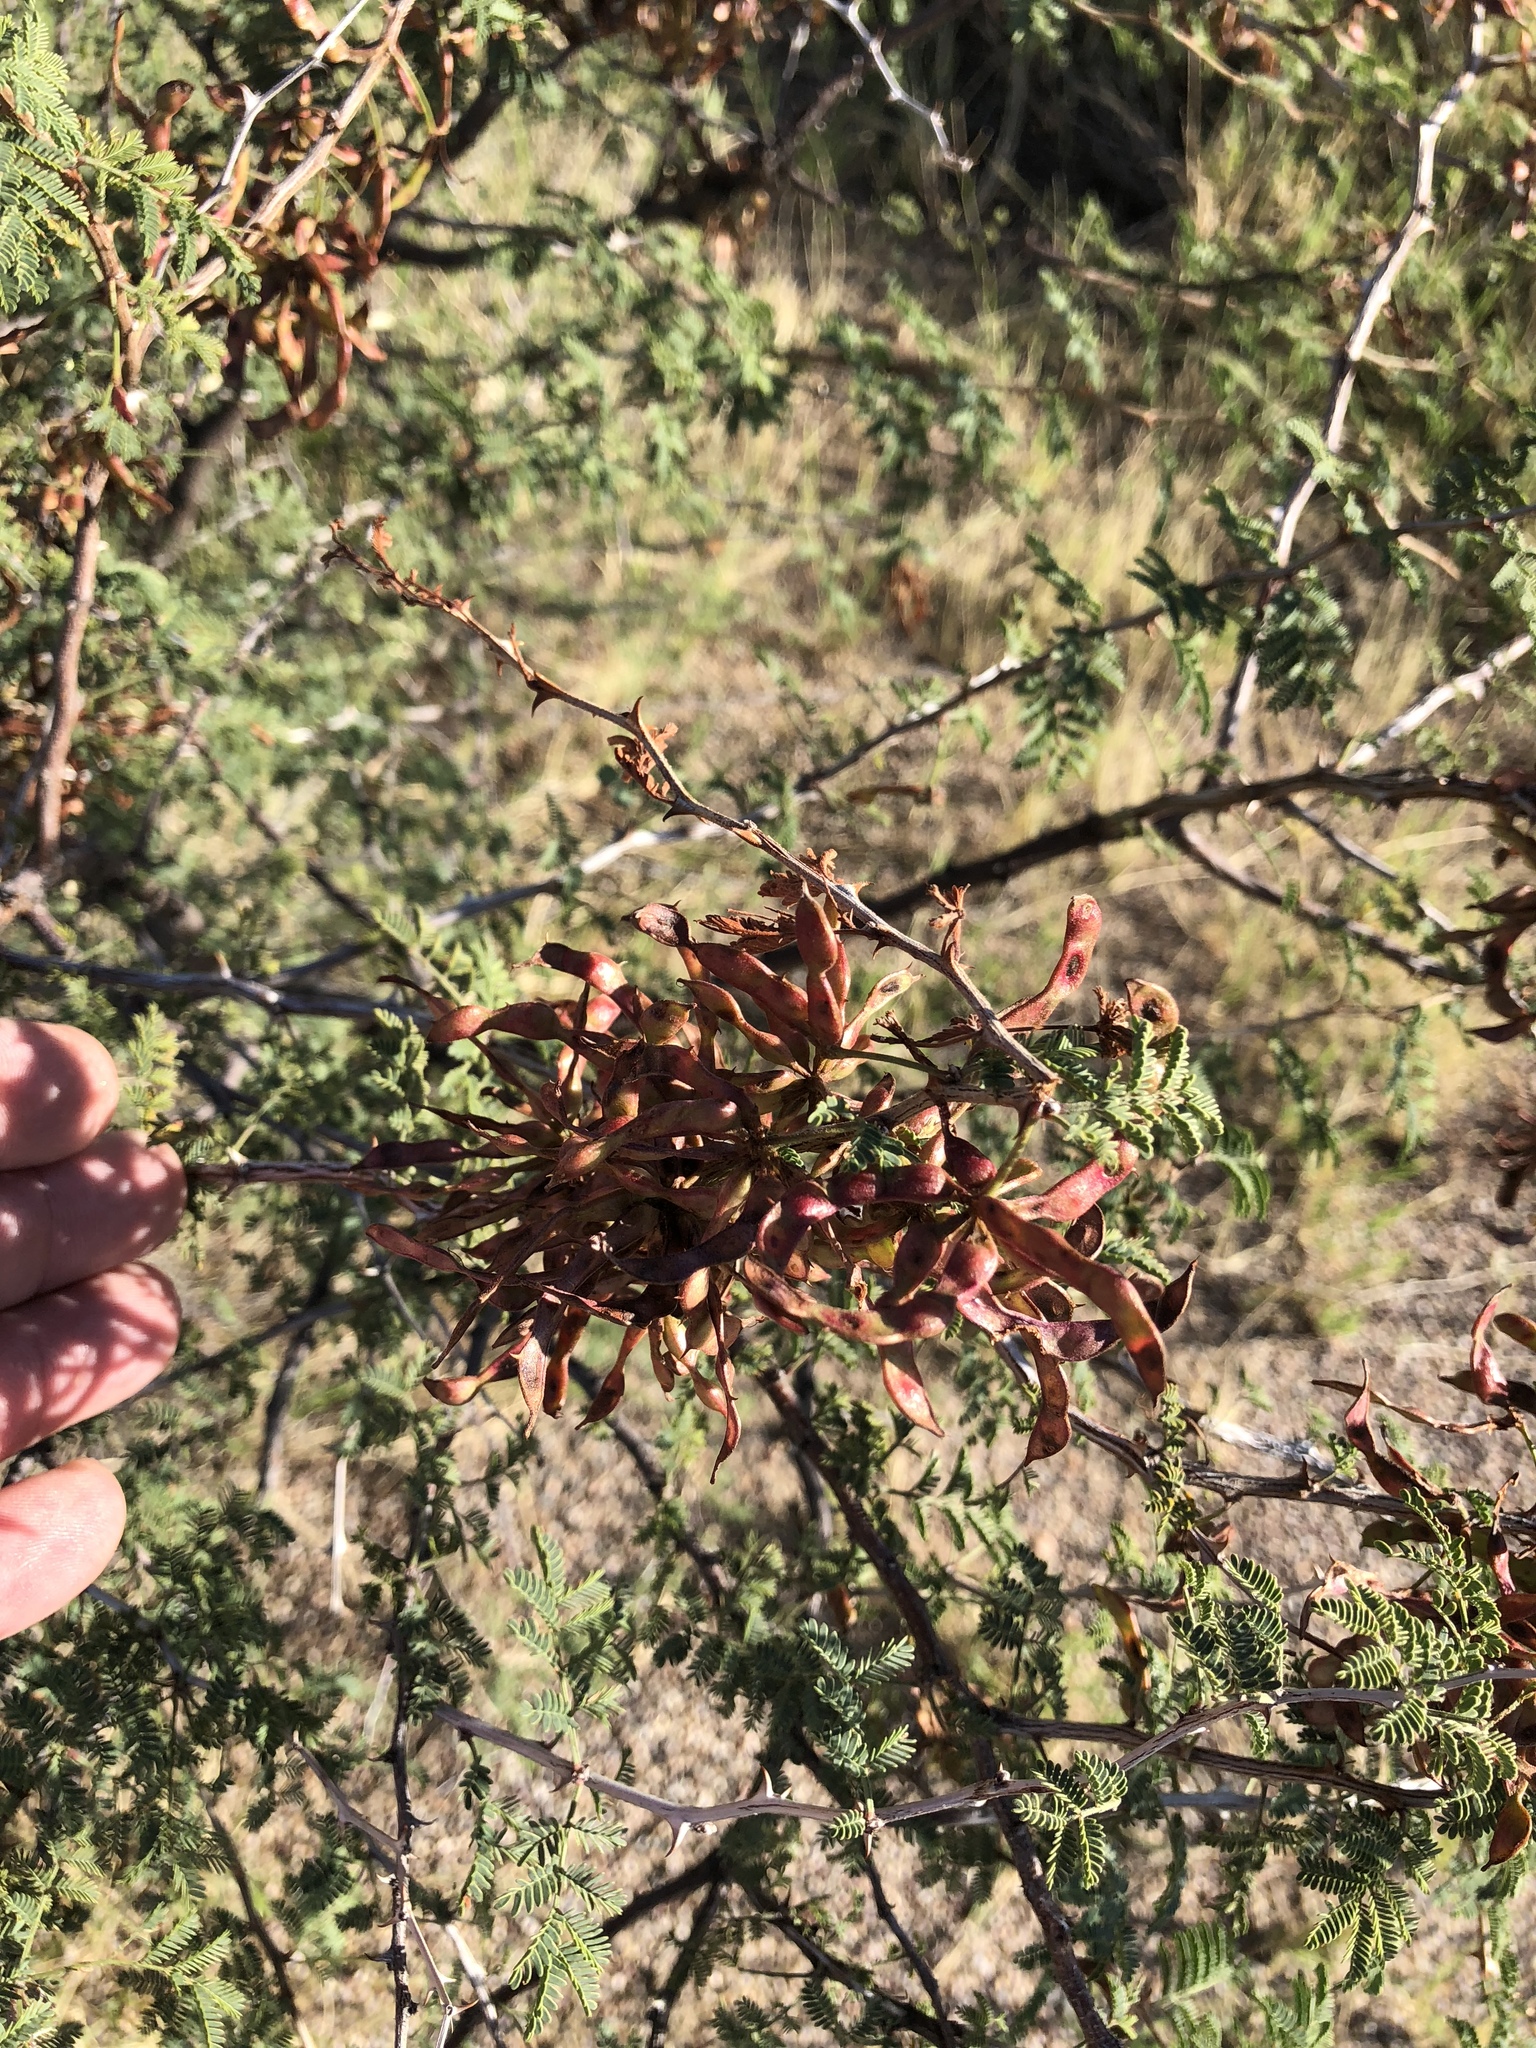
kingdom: Plantae
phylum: Tracheophyta
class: Magnoliopsida
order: Fabales
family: Fabaceae
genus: Mimosa
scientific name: Mimosa biuncifera
